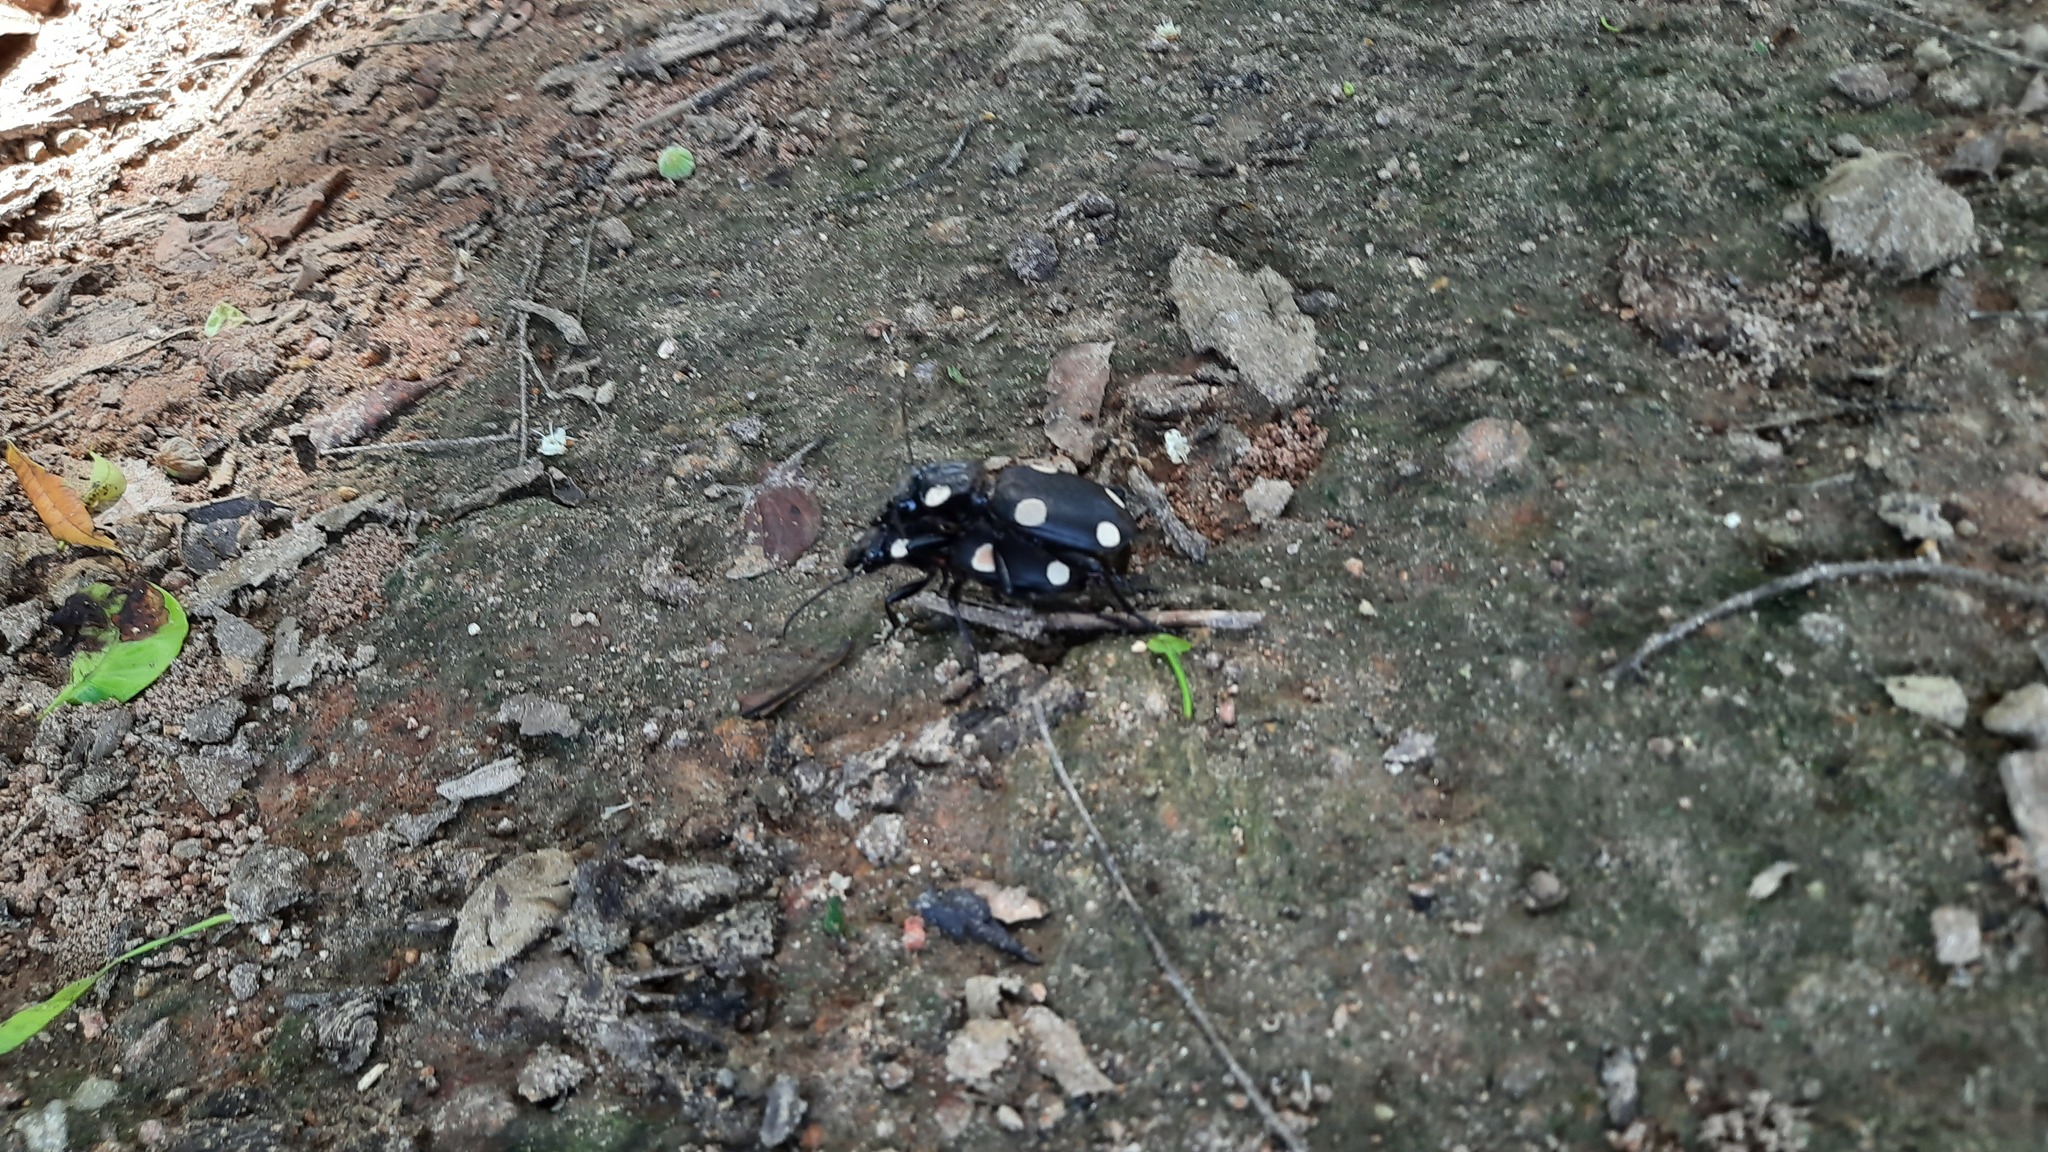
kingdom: Animalia
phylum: Arthropoda
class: Insecta
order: Coleoptera
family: Carabidae
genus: Anthia
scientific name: Anthia sexguttata
